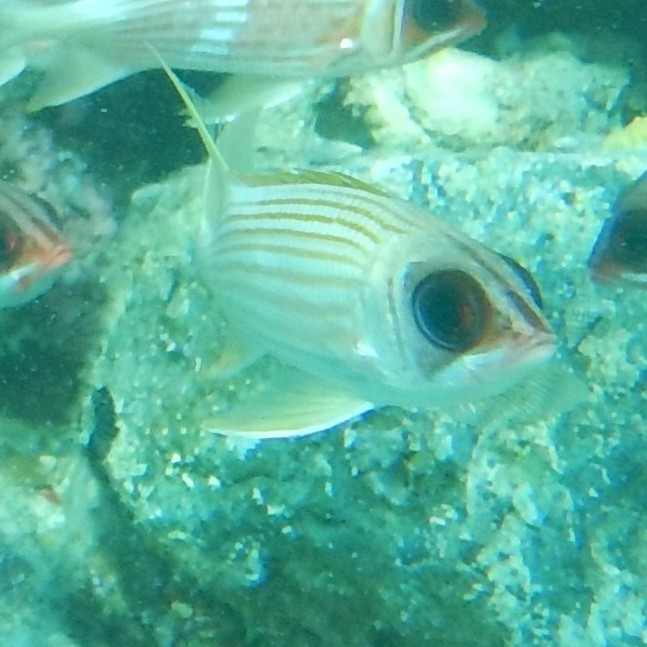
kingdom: Animalia
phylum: Chordata
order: Beryciformes
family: Holocentridae
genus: Holocentrus
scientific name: Holocentrus rufus
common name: Longspine squirrelfish
